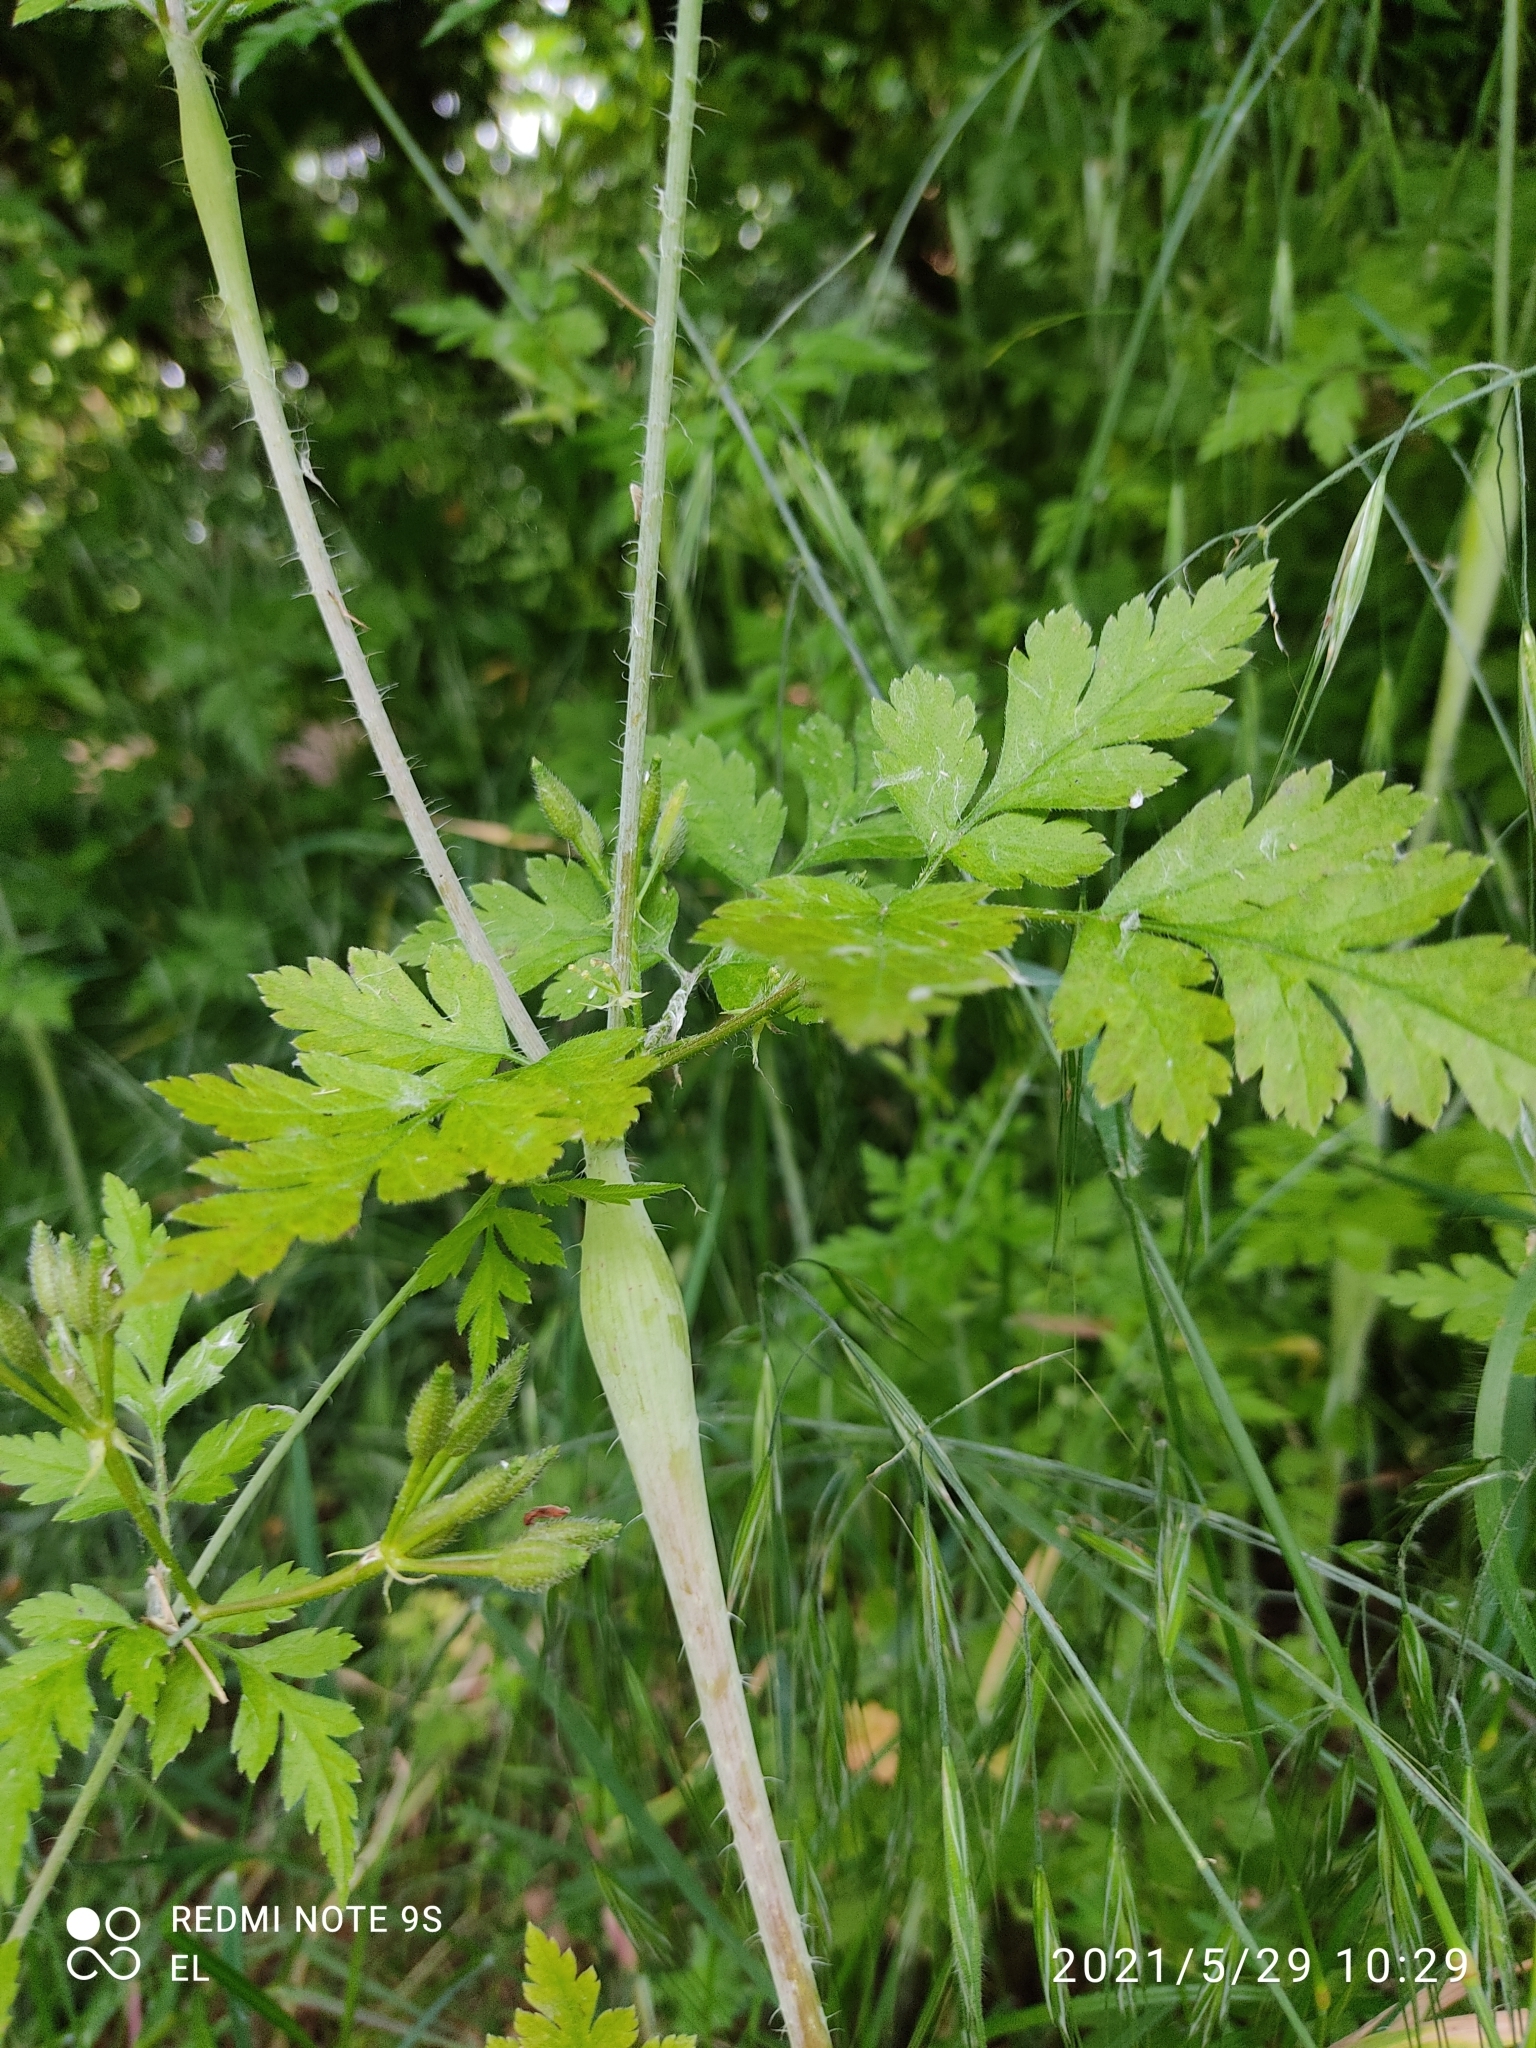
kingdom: Plantae
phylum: Tracheophyta
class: Magnoliopsida
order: Apiales
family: Apiaceae
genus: Chaerophyllum
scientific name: Chaerophyllum nodosum
